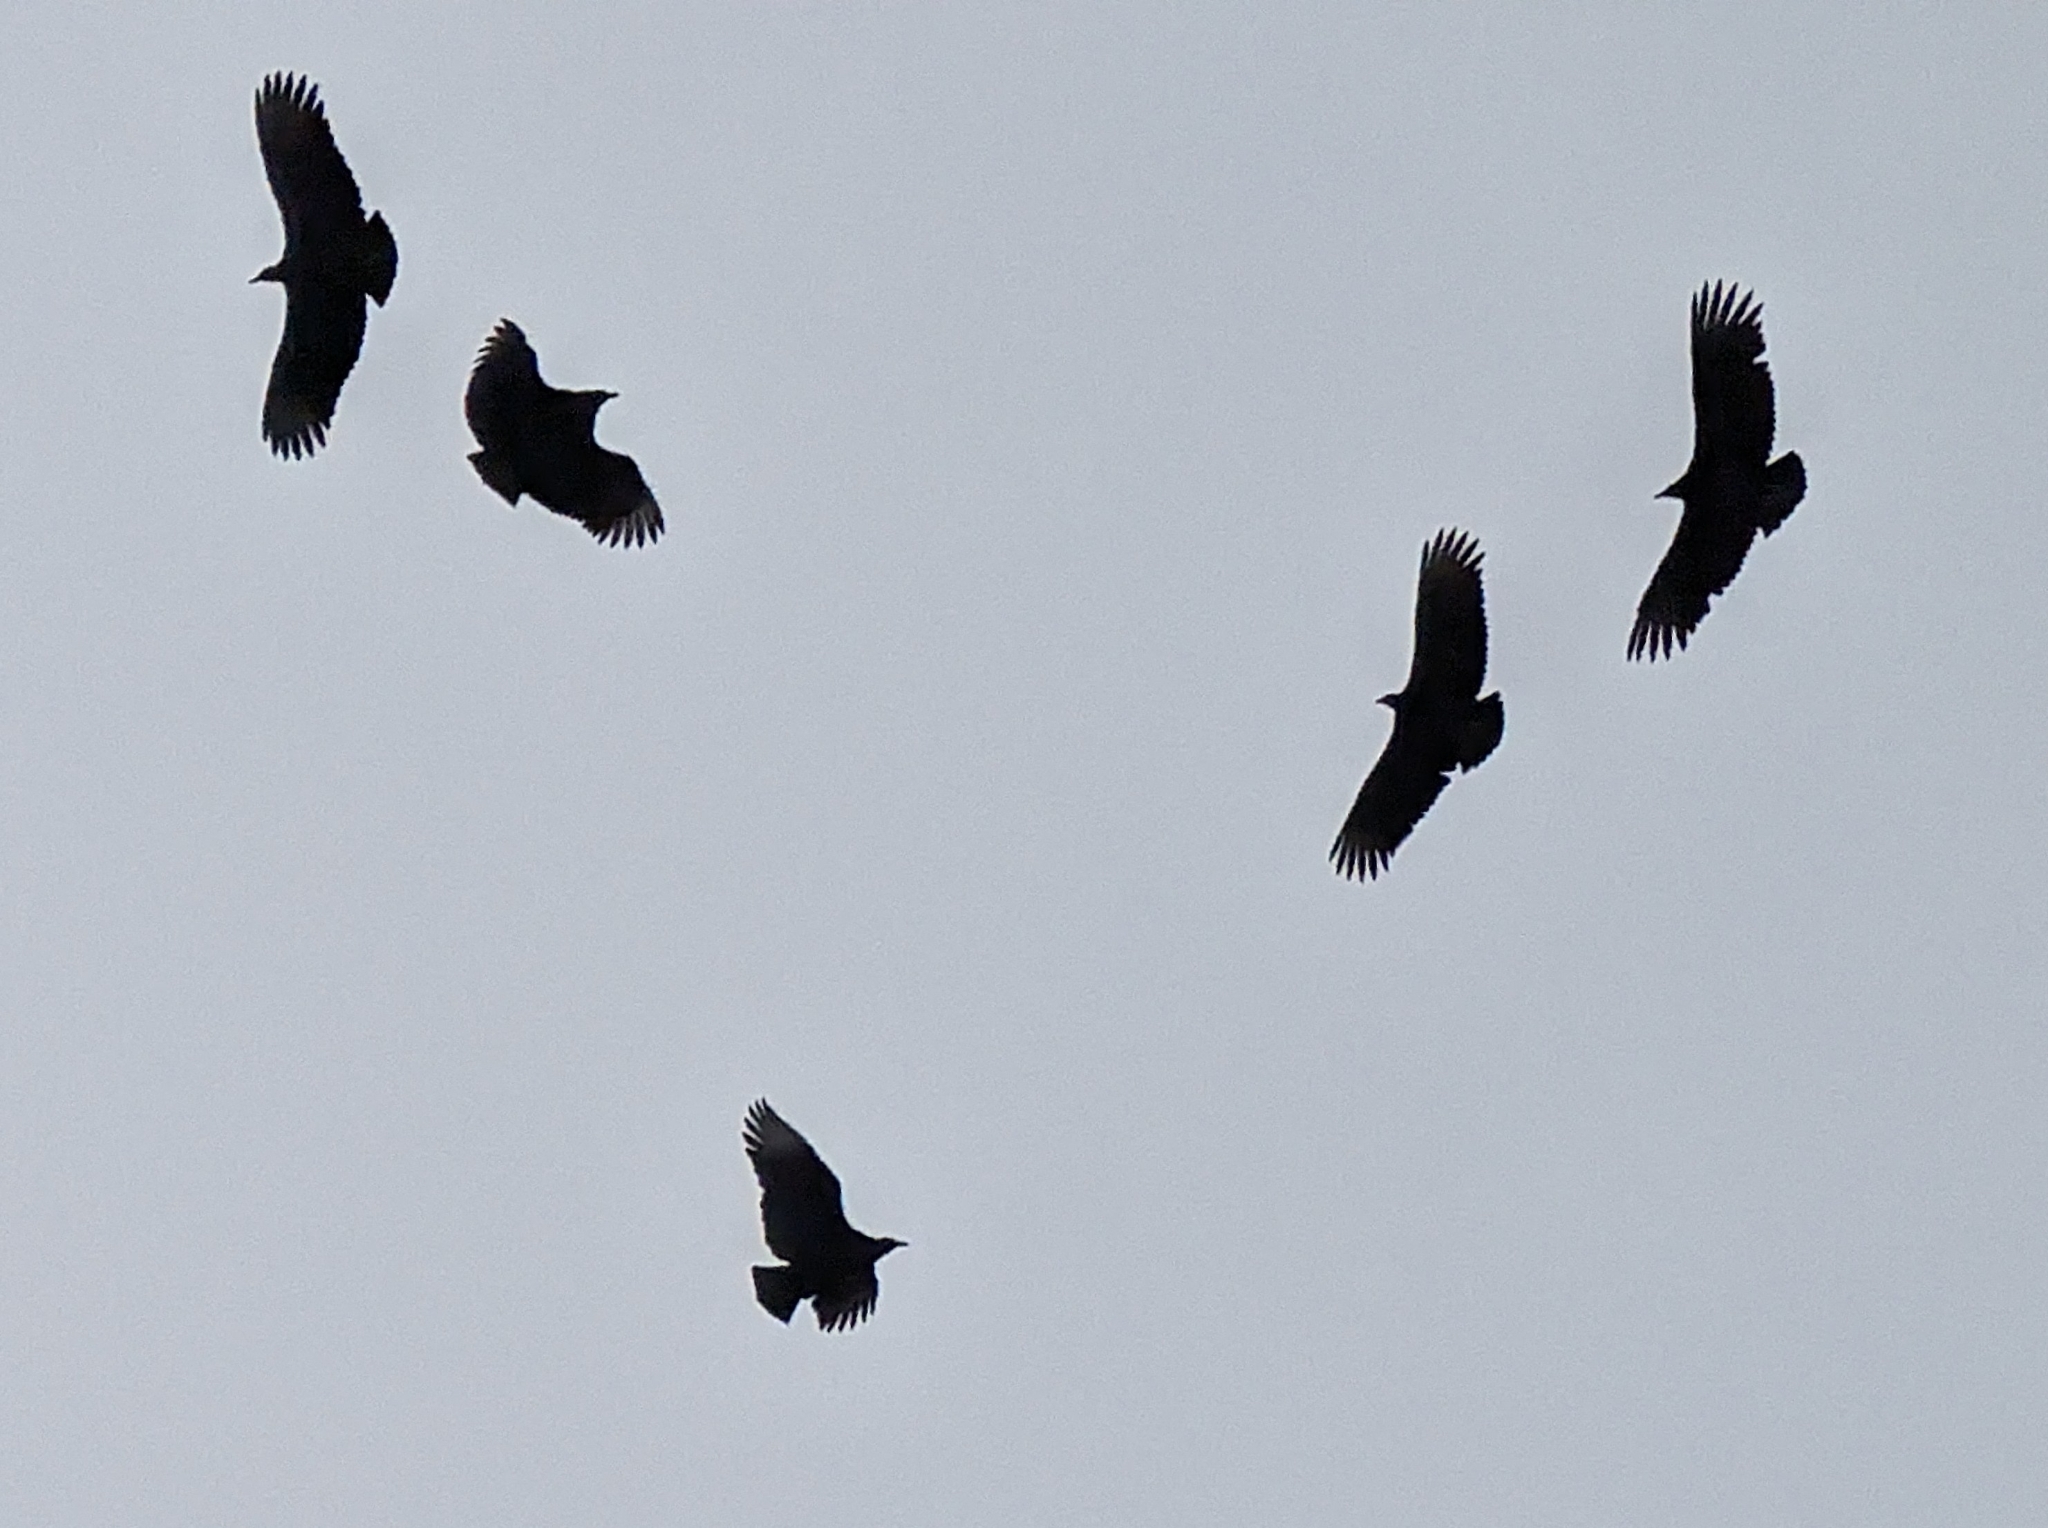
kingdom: Animalia
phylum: Chordata
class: Aves
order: Accipitriformes
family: Cathartidae
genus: Coragyps
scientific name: Coragyps atratus
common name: Black vulture
